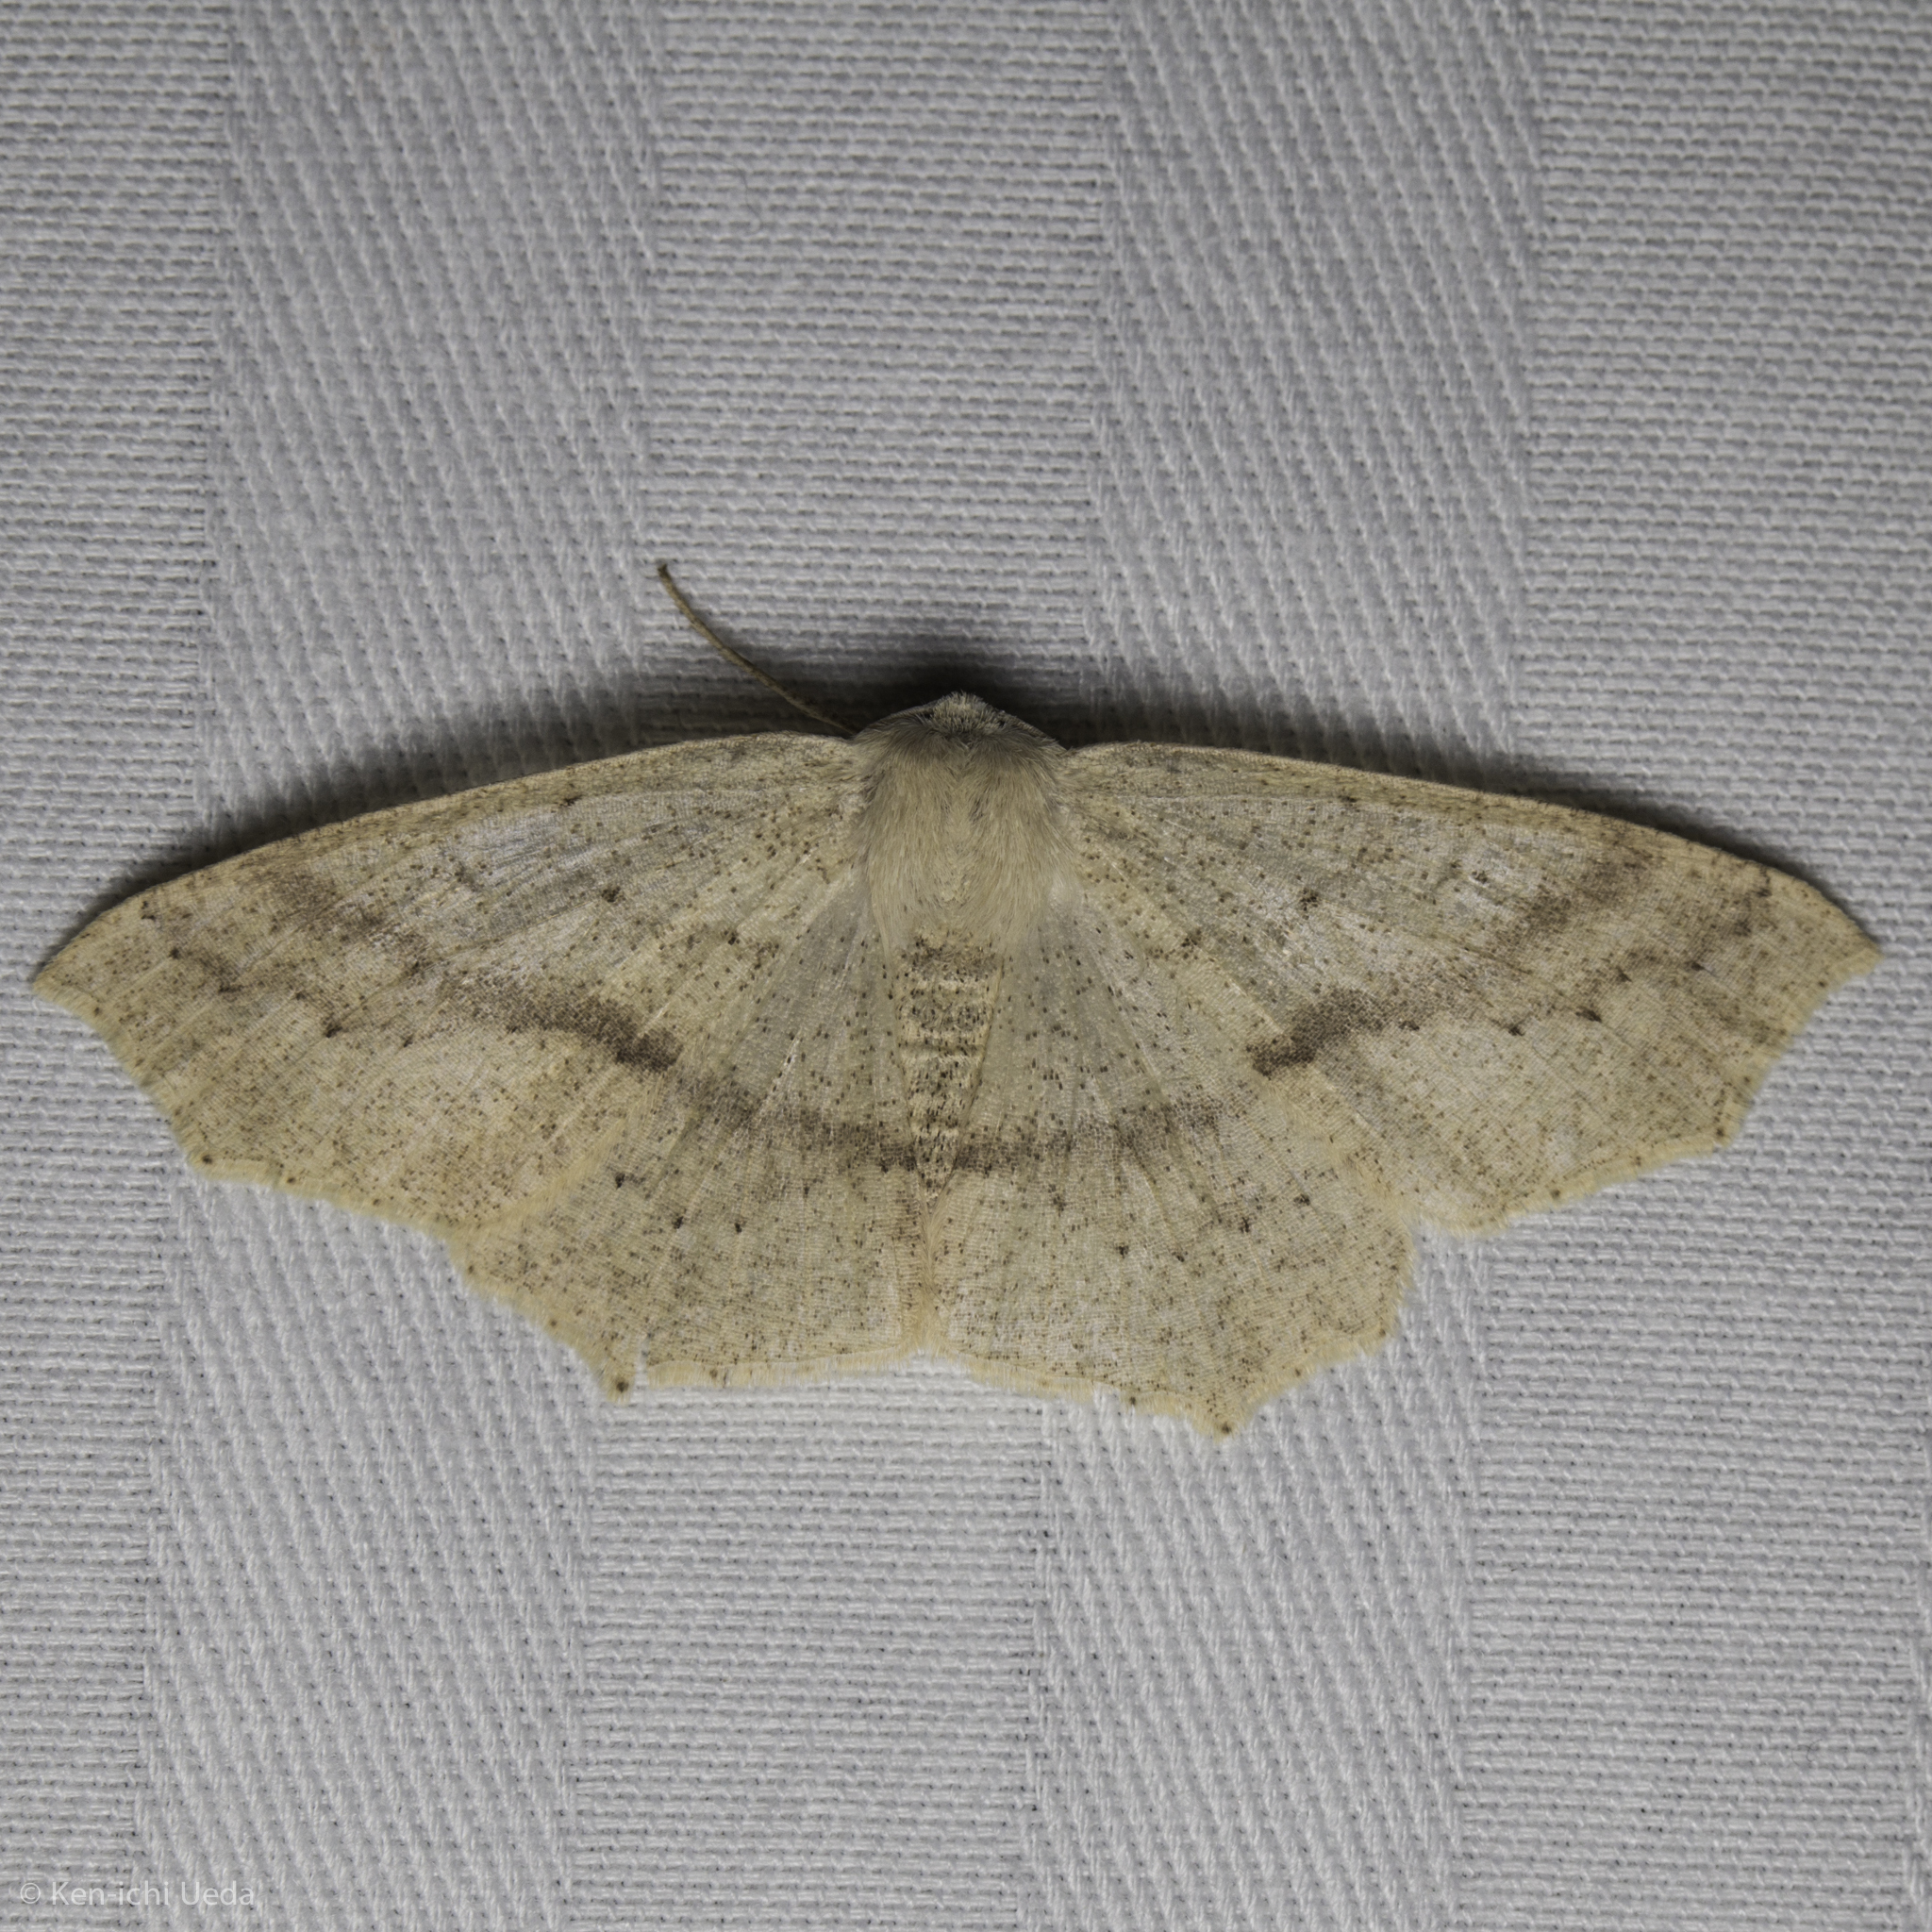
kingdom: Animalia
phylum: Arthropoda
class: Insecta
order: Lepidoptera
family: Geometridae
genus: Sabulodes
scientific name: Sabulodes aegrotata
